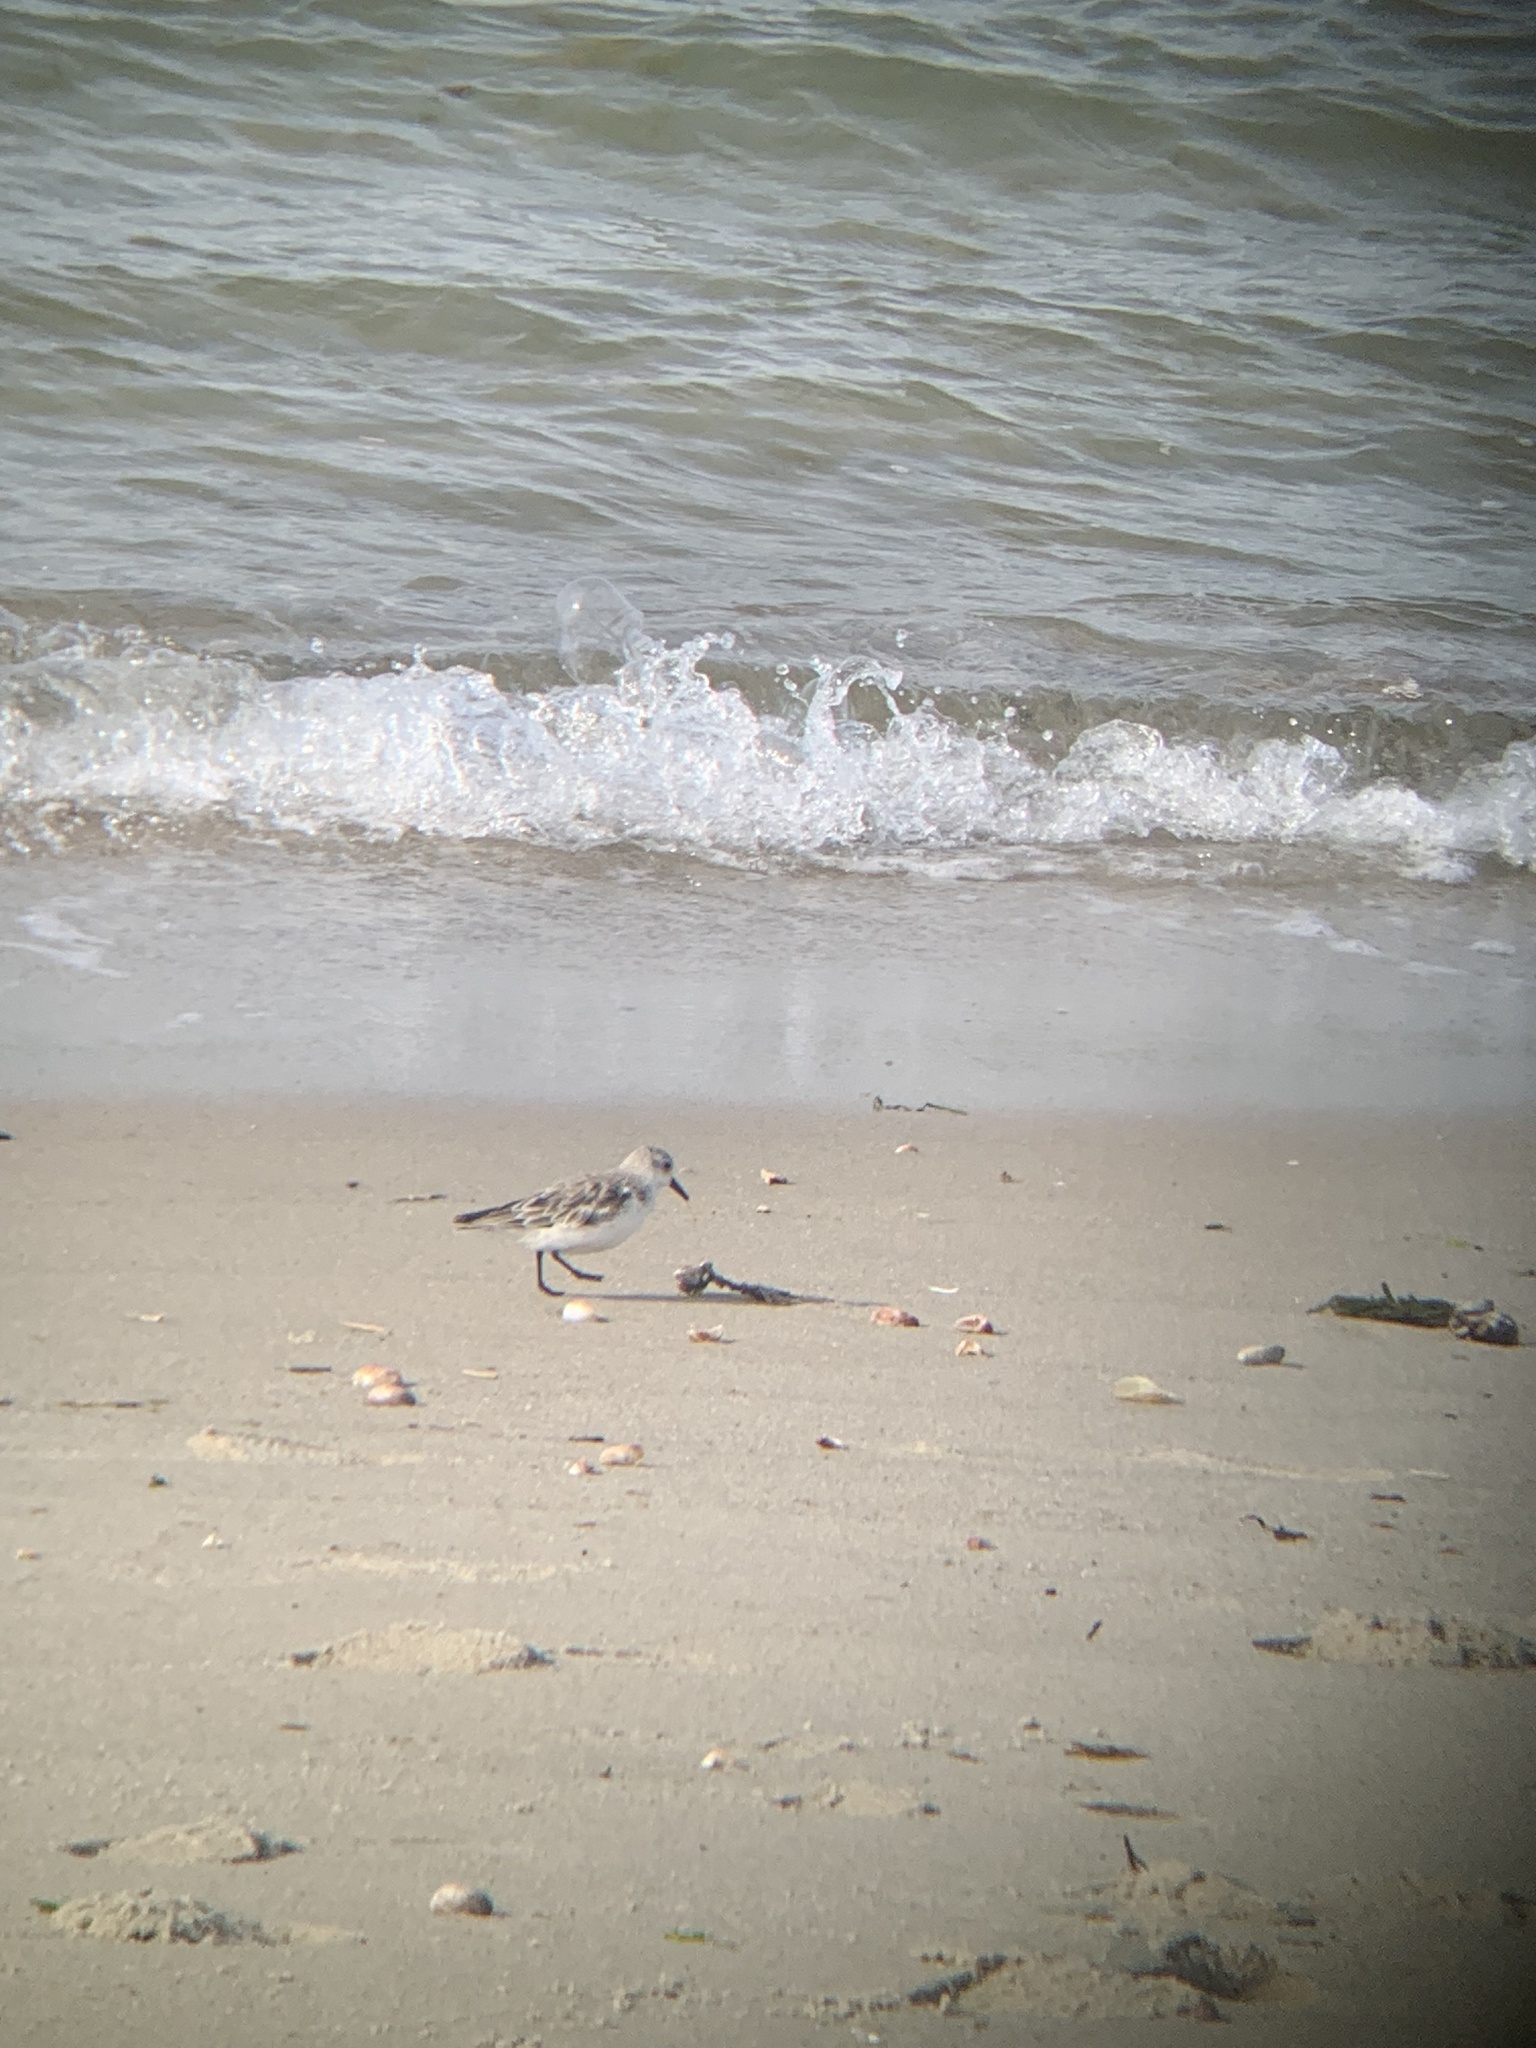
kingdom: Animalia
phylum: Chordata
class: Aves
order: Charadriiformes
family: Scolopacidae
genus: Calidris
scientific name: Calidris alba
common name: Sanderling
